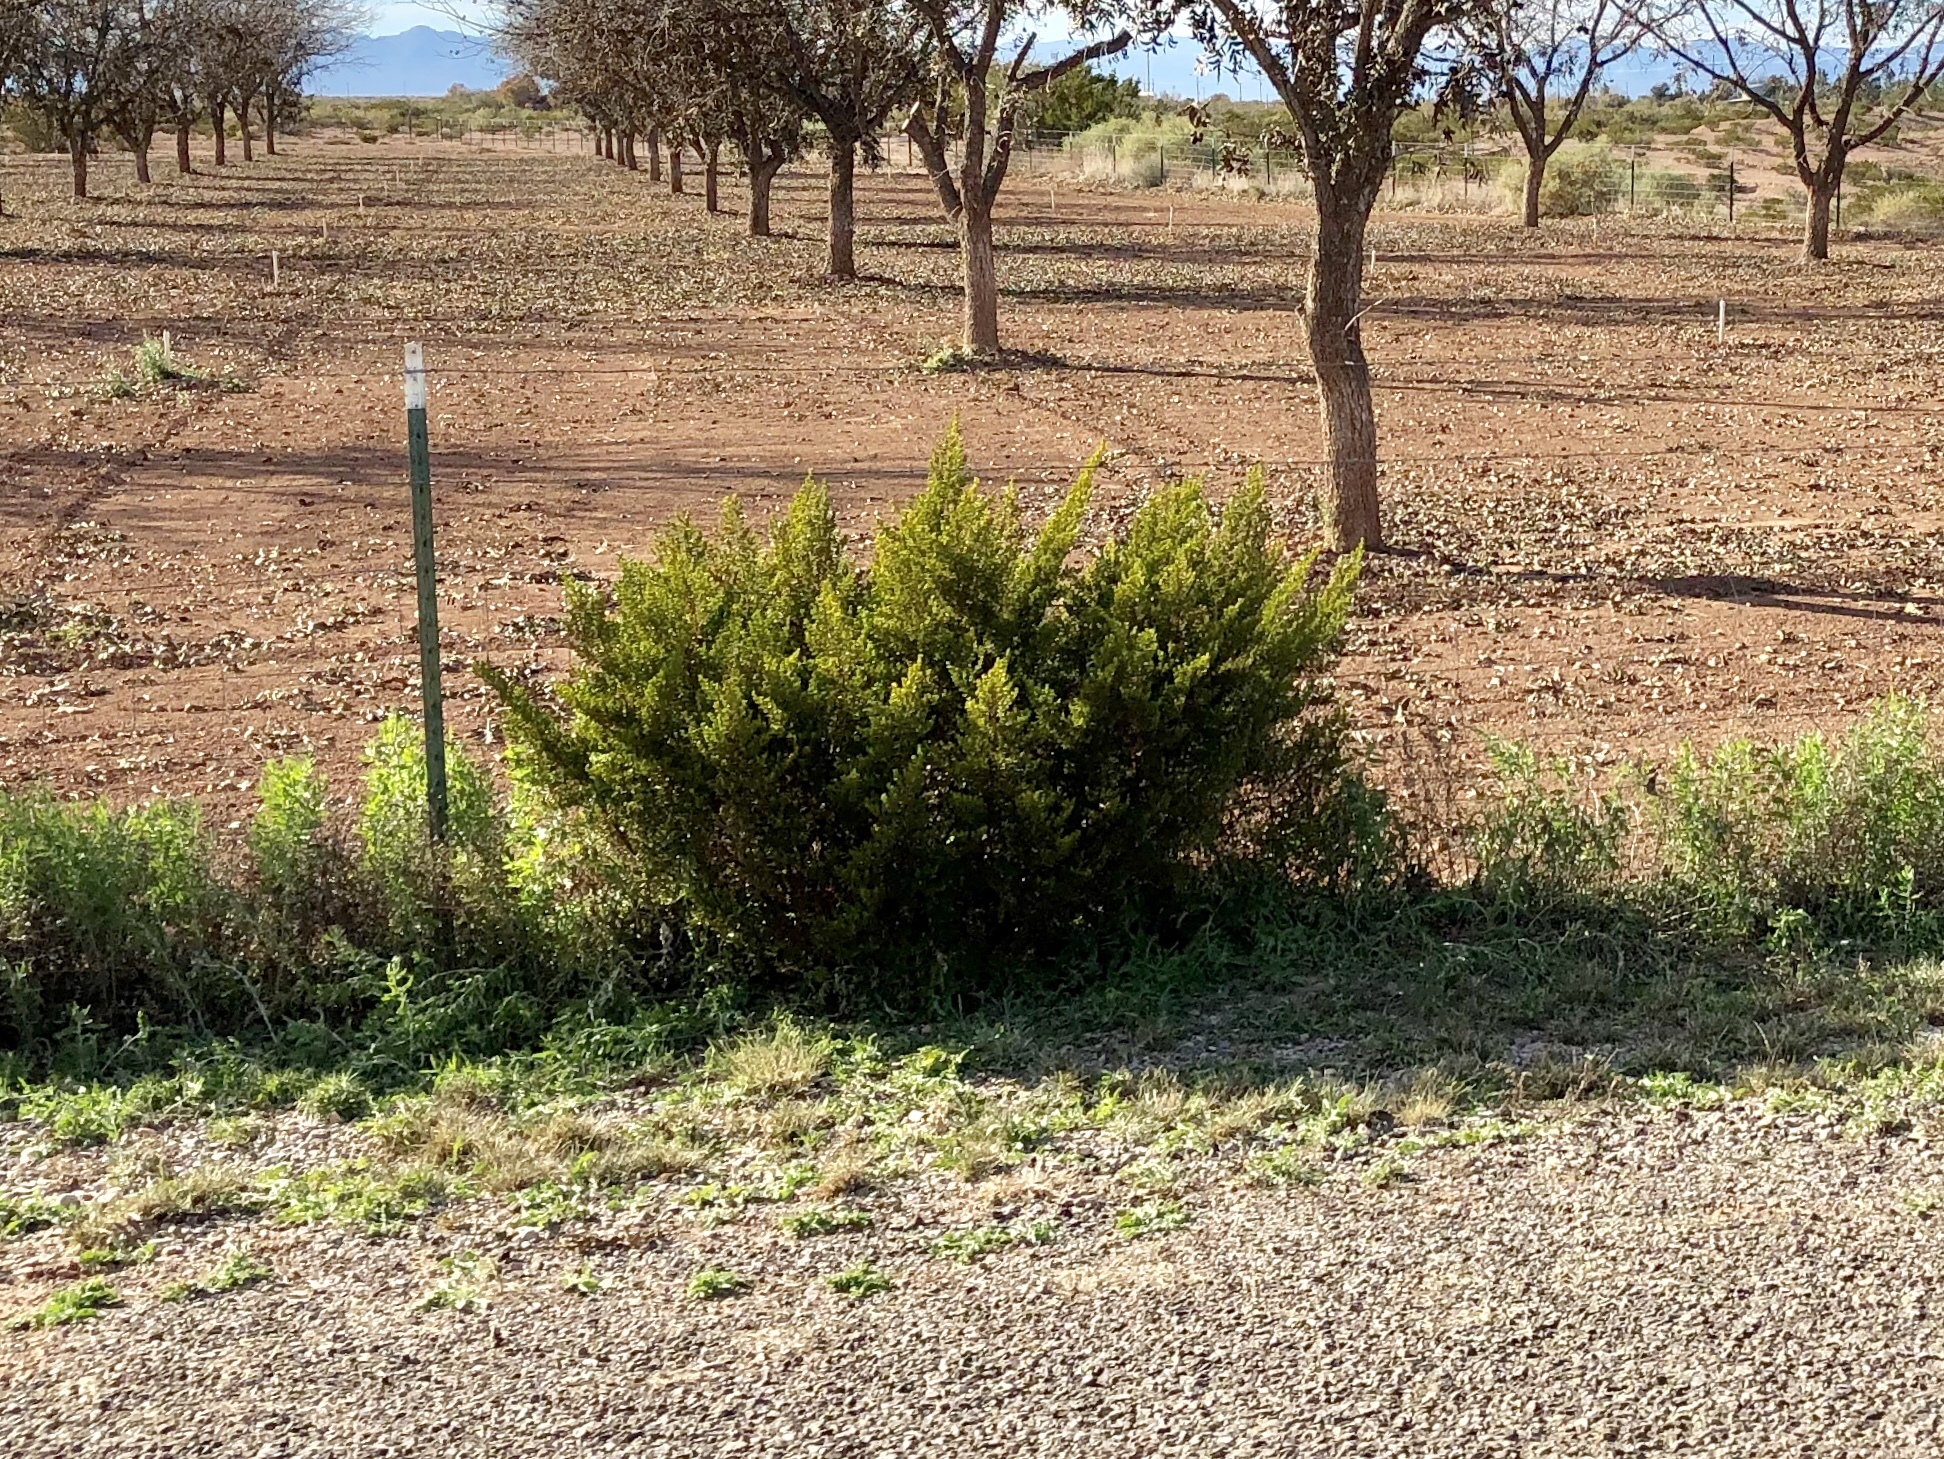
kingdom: Plantae
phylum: Tracheophyta
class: Magnoliopsida
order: Zygophyllales
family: Zygophyllaceae
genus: Larrea
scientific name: Larrea tridentata
